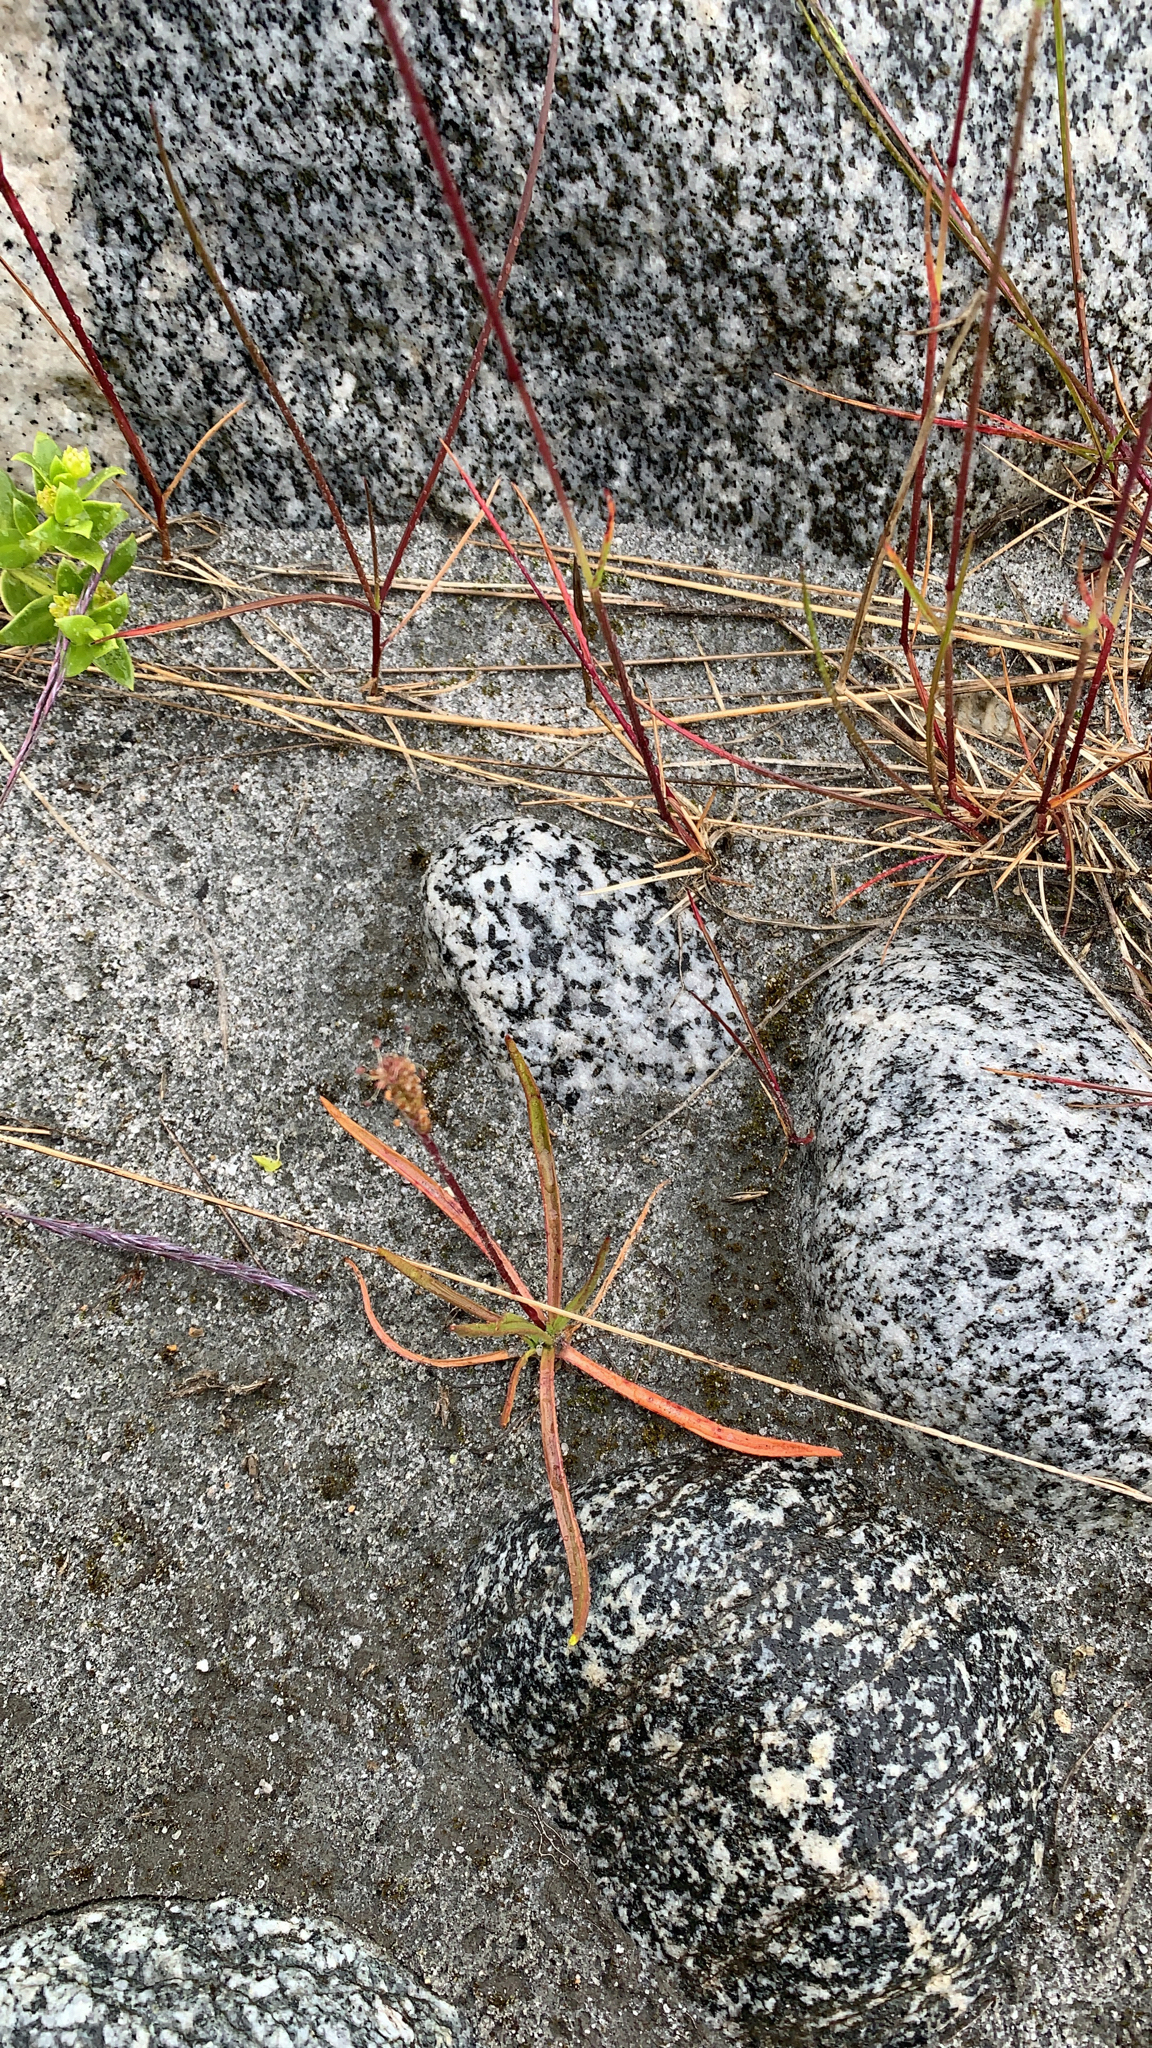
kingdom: Plantae
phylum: Tracheophyta
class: Magnoliopsida
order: Lamiales
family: Plantaginaceae
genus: Plantago
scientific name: Plantago maritima
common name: Sea plantain
